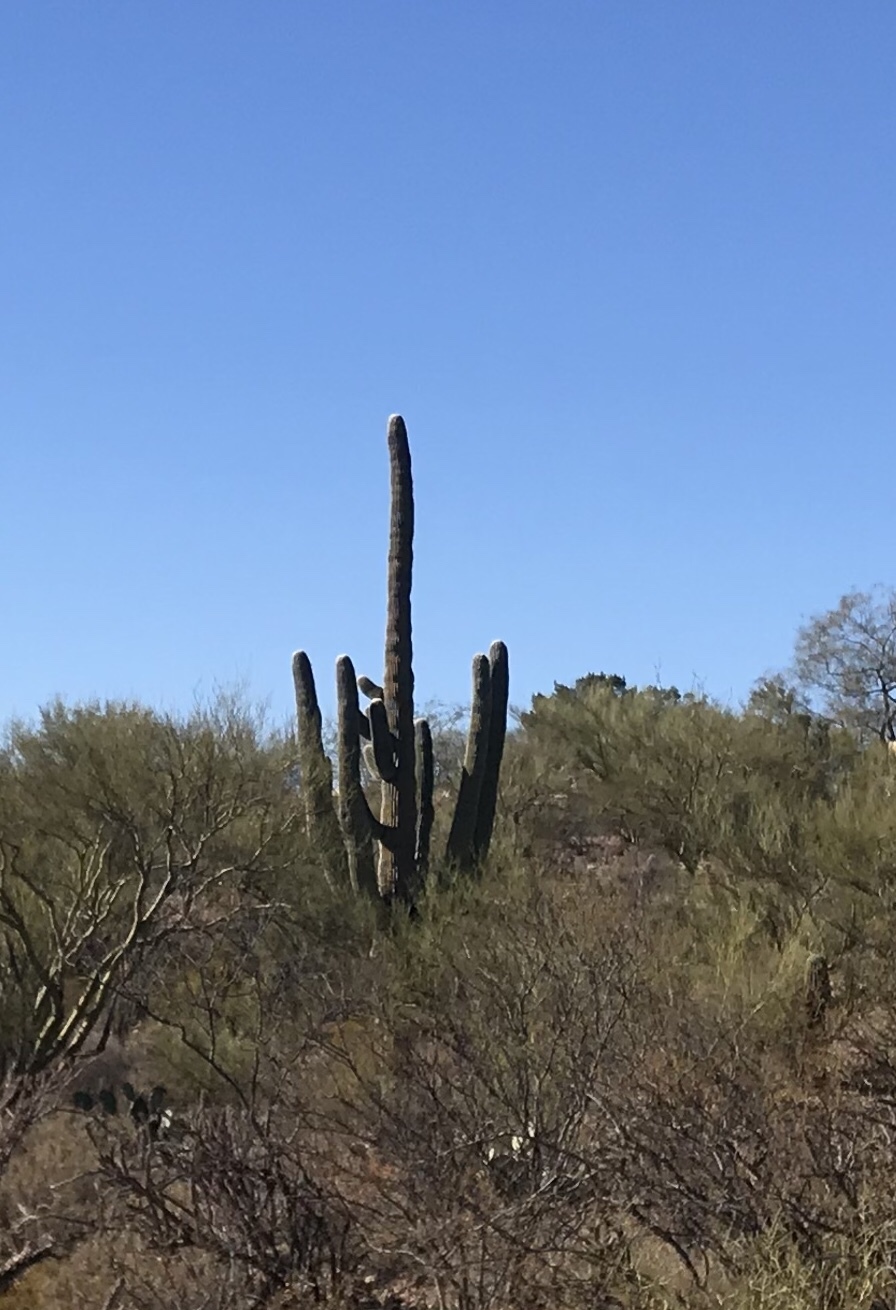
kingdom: Plantae
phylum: Tracheophyta
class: Magnoliopsida
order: Caryophyllales
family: Cactaceae
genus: Carnegiea
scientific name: Carnegiea gigantea
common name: Saguaro
